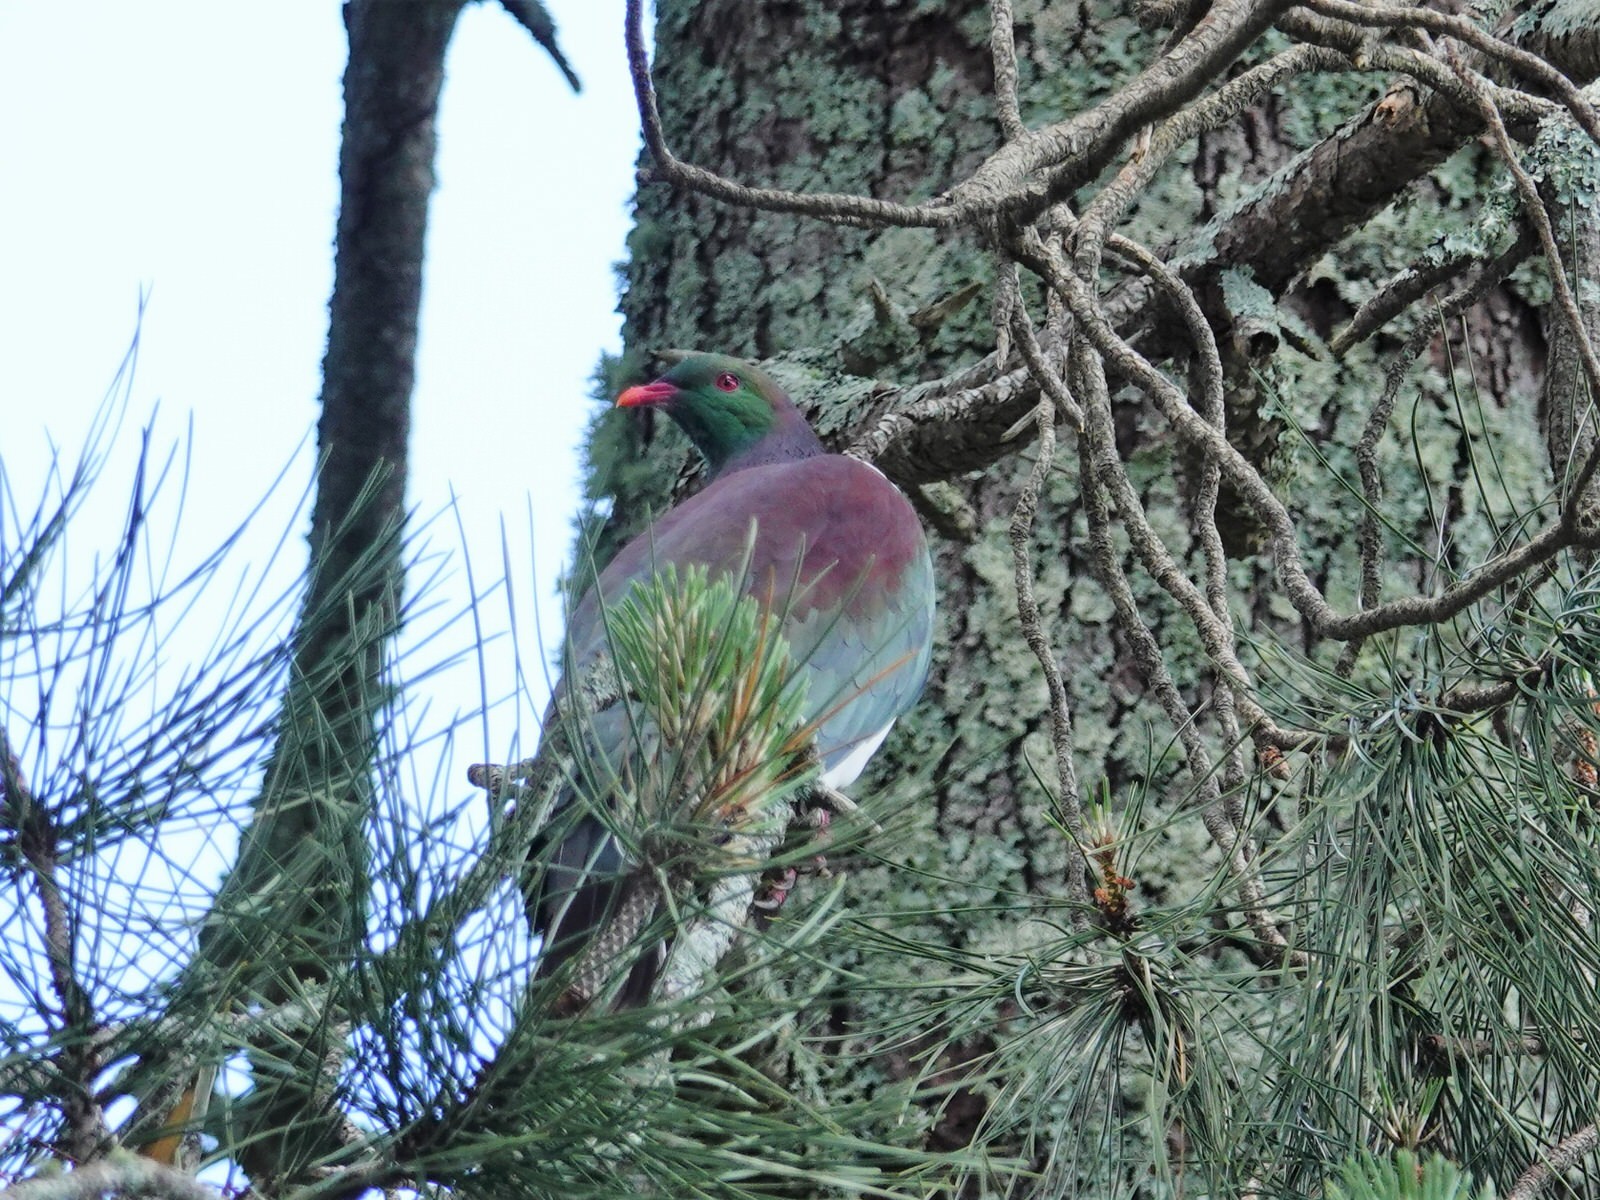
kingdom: Animalia
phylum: Chordata
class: Aves
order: Columbiformes
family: Columbidae
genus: Hemiphaga
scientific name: Hemiphaga novaeseelandiae
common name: New zealand pigeon
